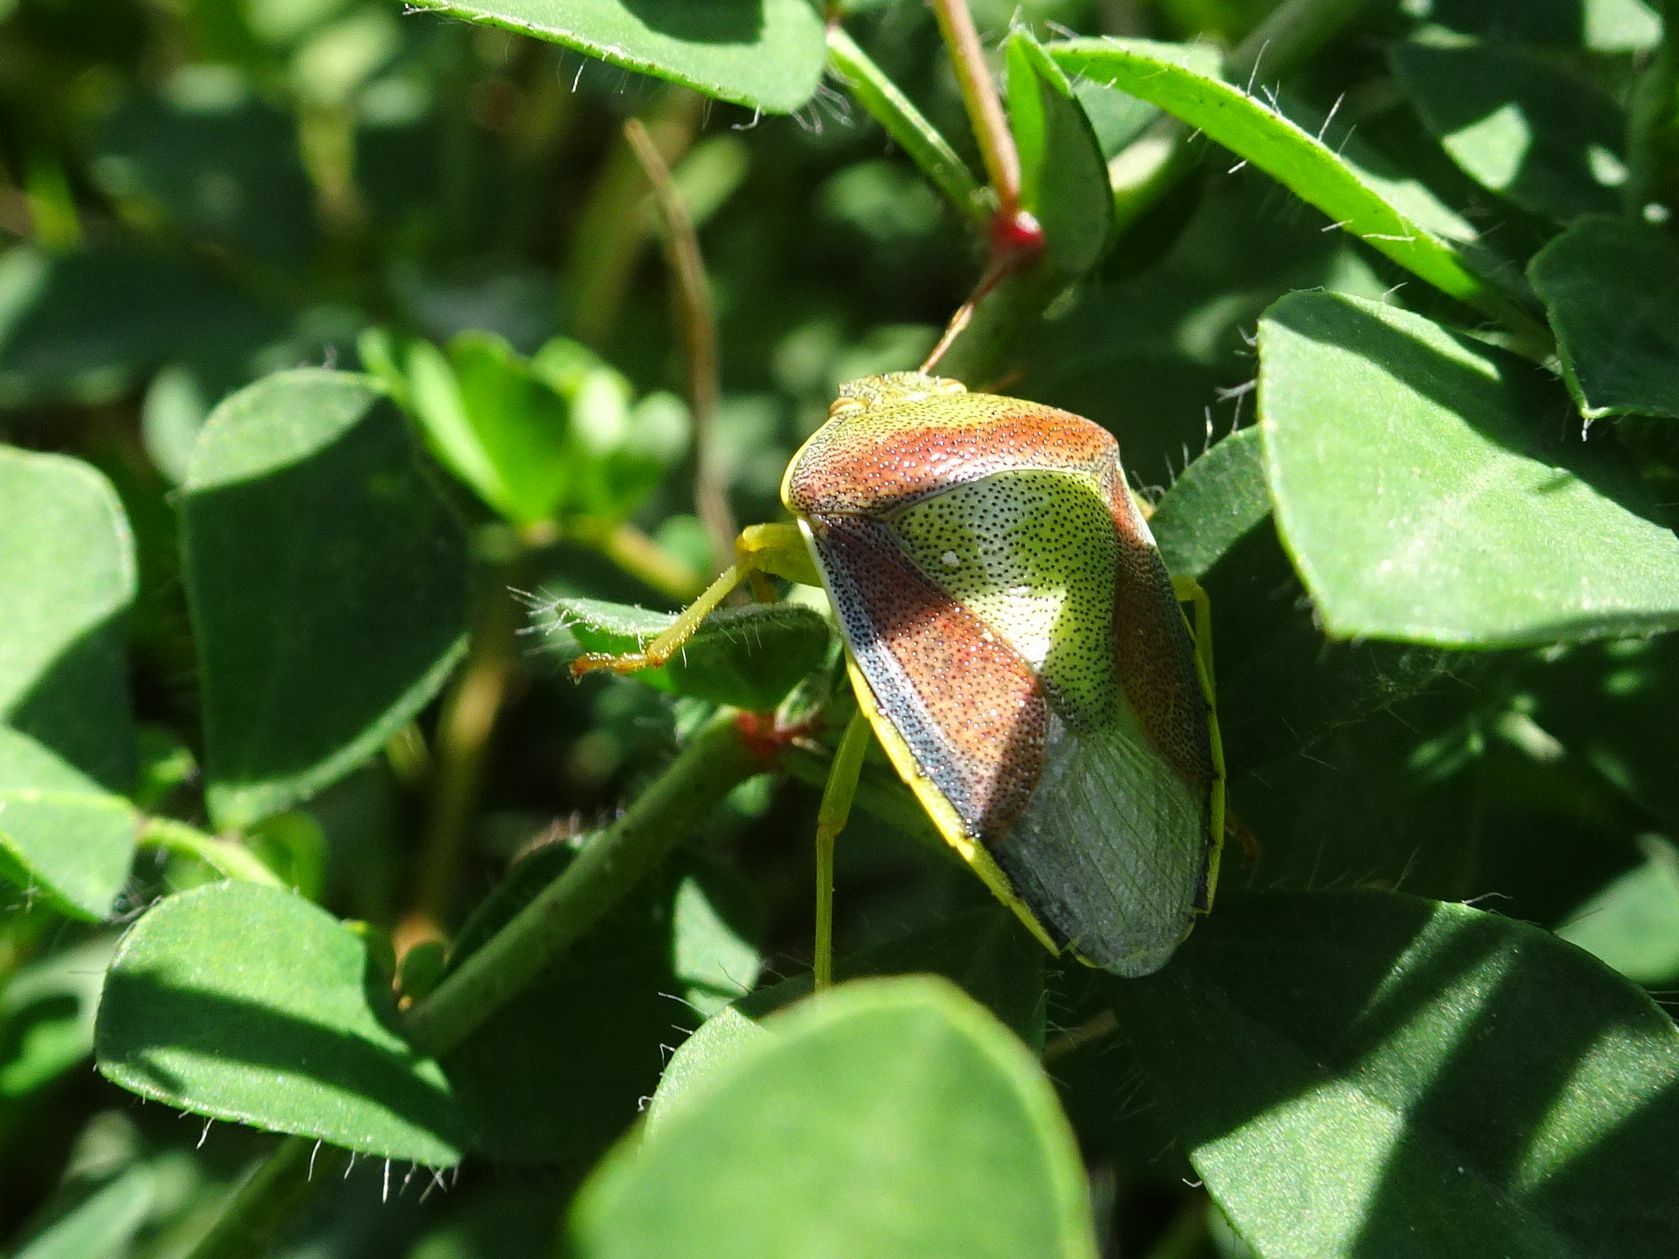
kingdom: Animalia
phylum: Arthropoda
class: Insecta
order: Hemiptera
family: Pentatomidae
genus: Piezodorus
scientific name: Piezodorus lituratus
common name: Stink bug
